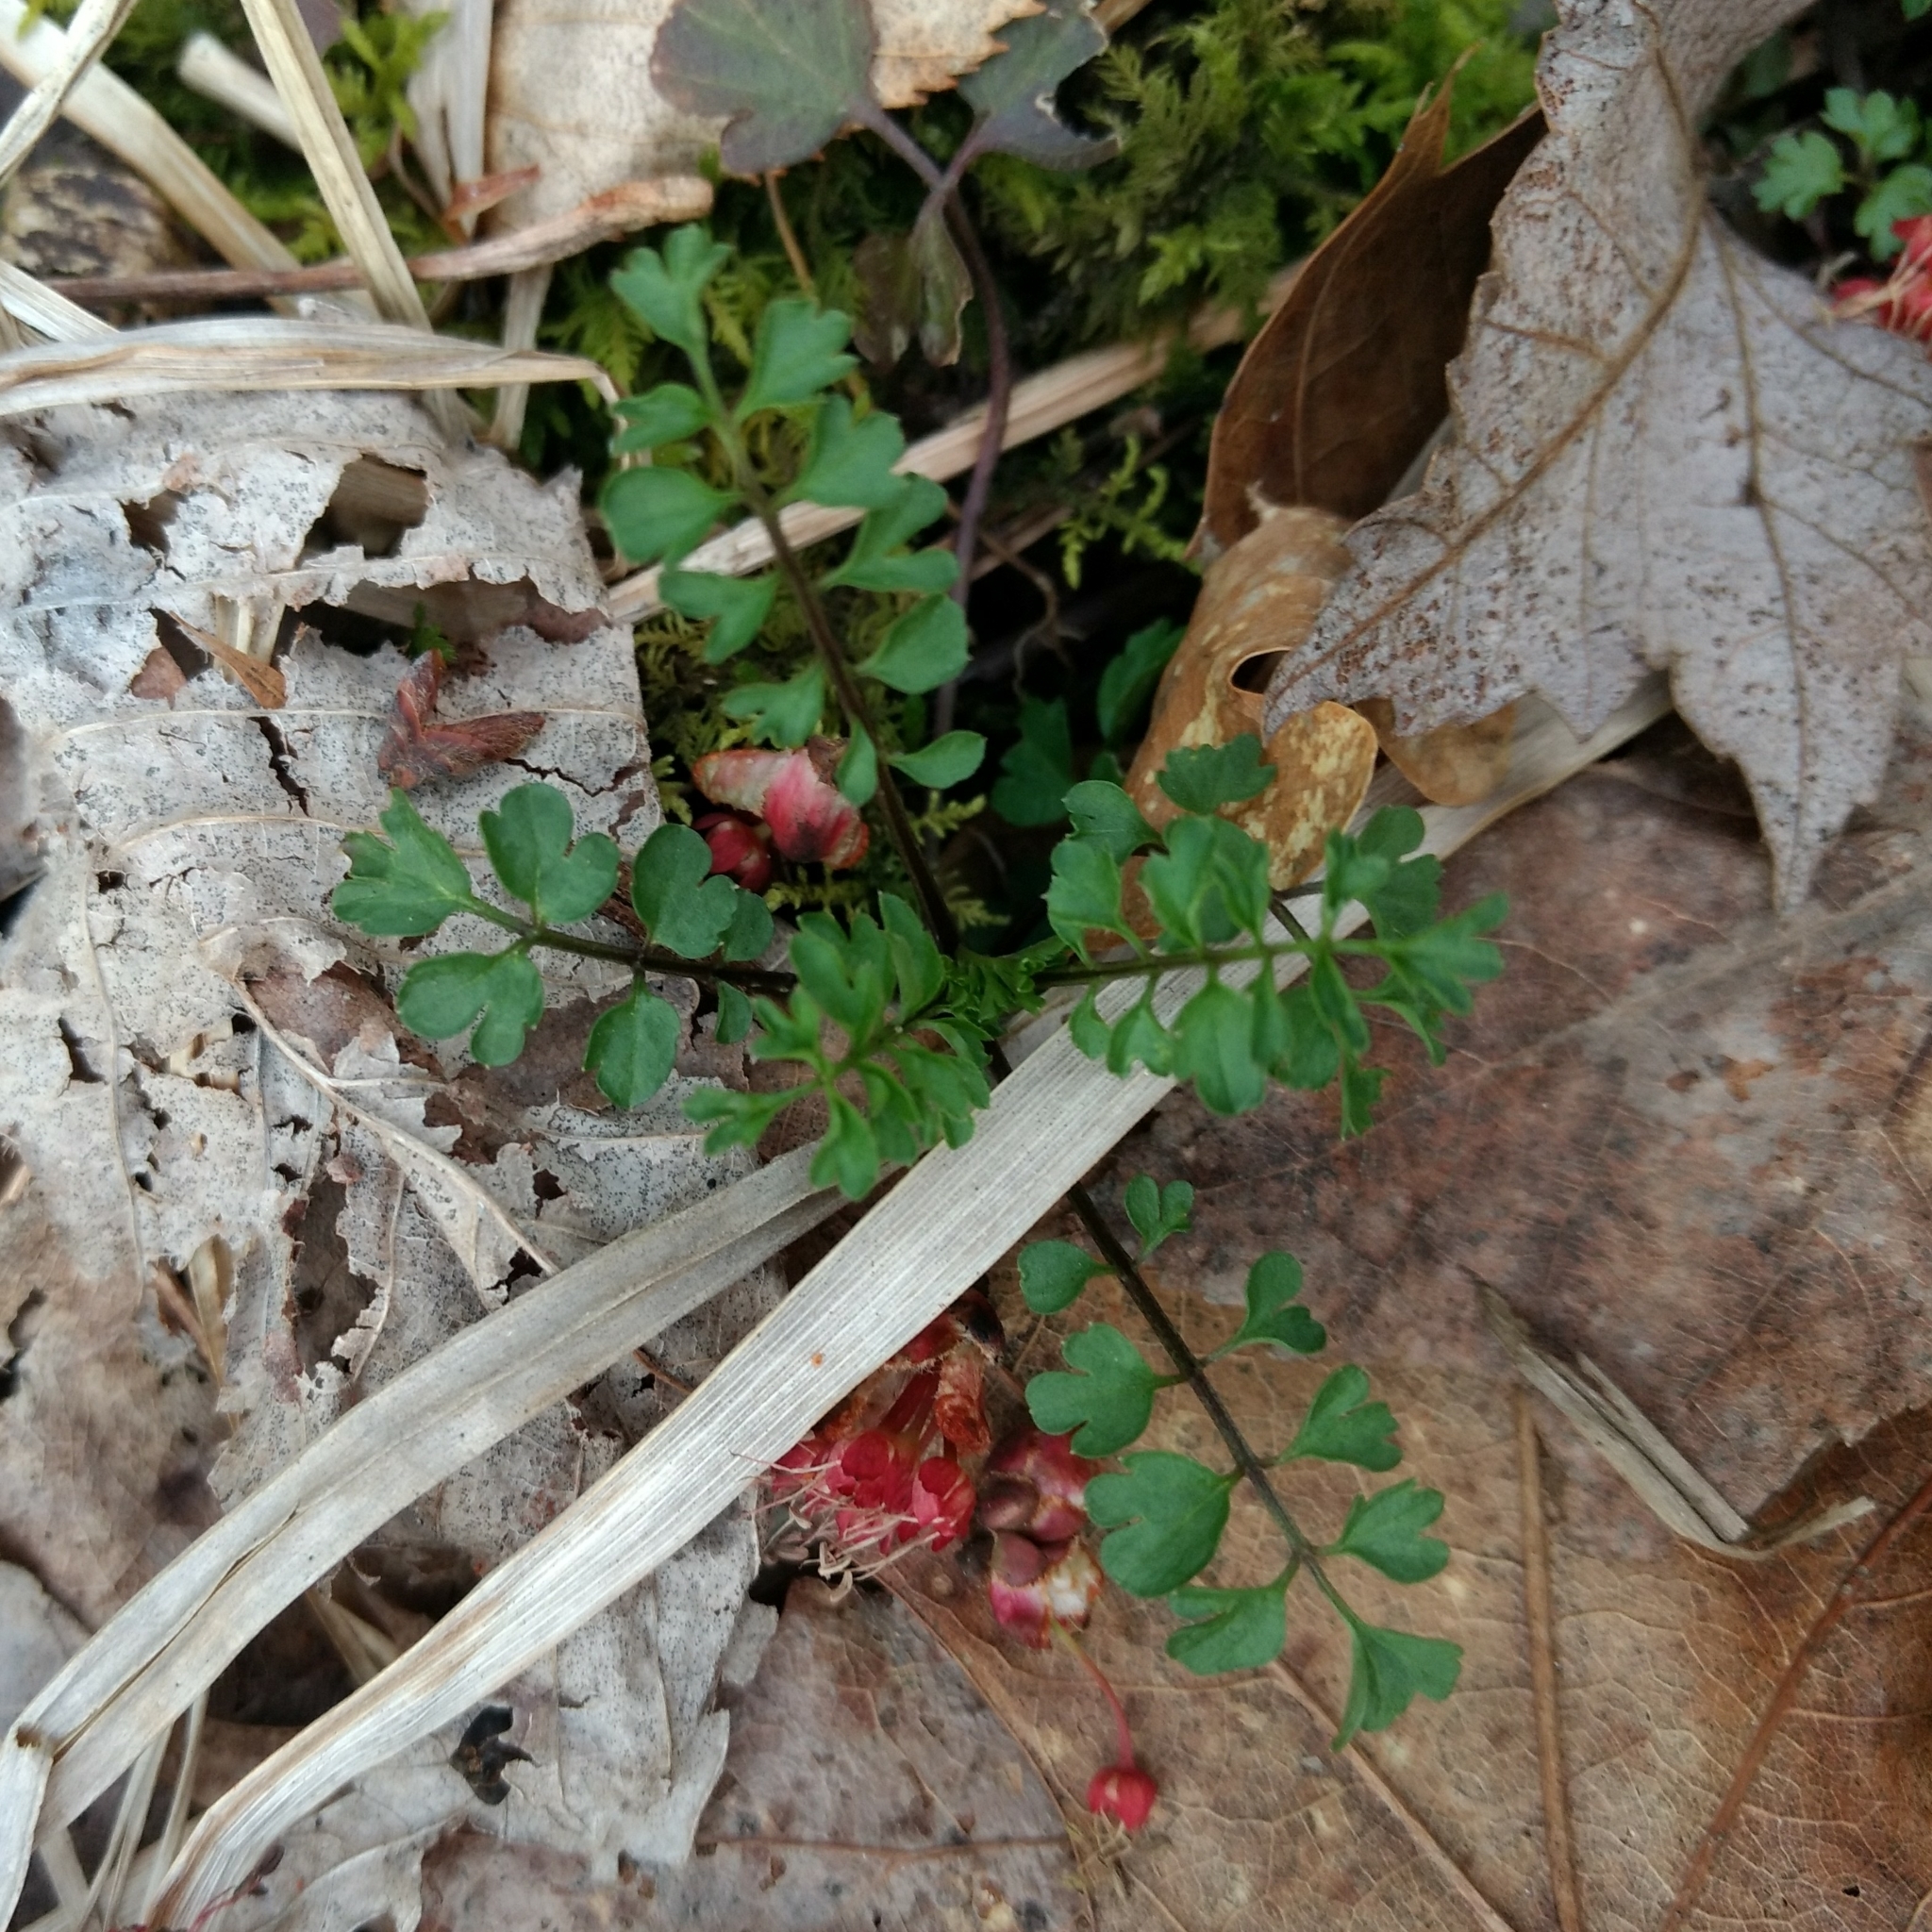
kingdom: Plantae
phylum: Tracheophyta
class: Magnoliopsida
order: Brassicales
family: Brassicaceae
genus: Cardamine
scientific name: Cardamine impatiens
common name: Narrow-leaved bitter-cress
